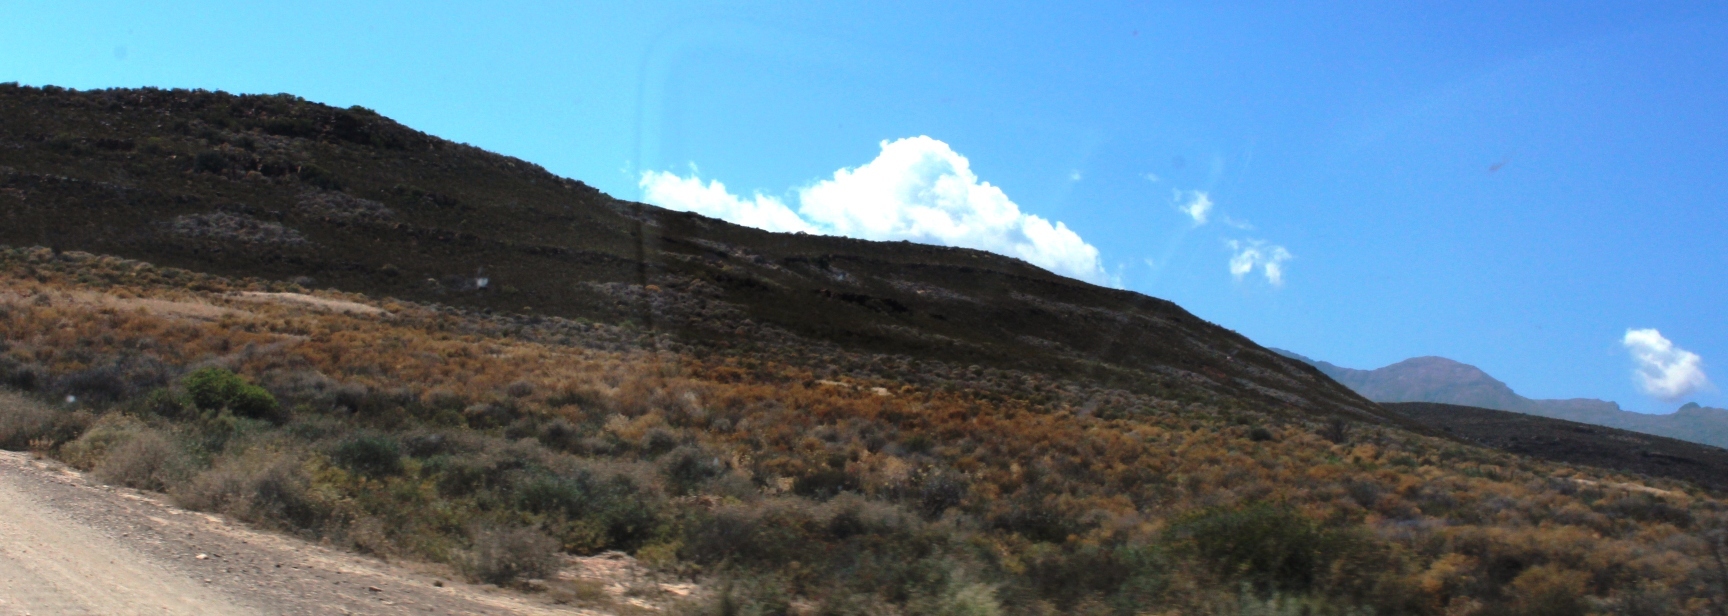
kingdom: Animalia
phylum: Arthropoda
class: Insecta
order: Blattodea
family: Hodotermitidae
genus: Microhodotermes
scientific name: Microhodotermes viator
